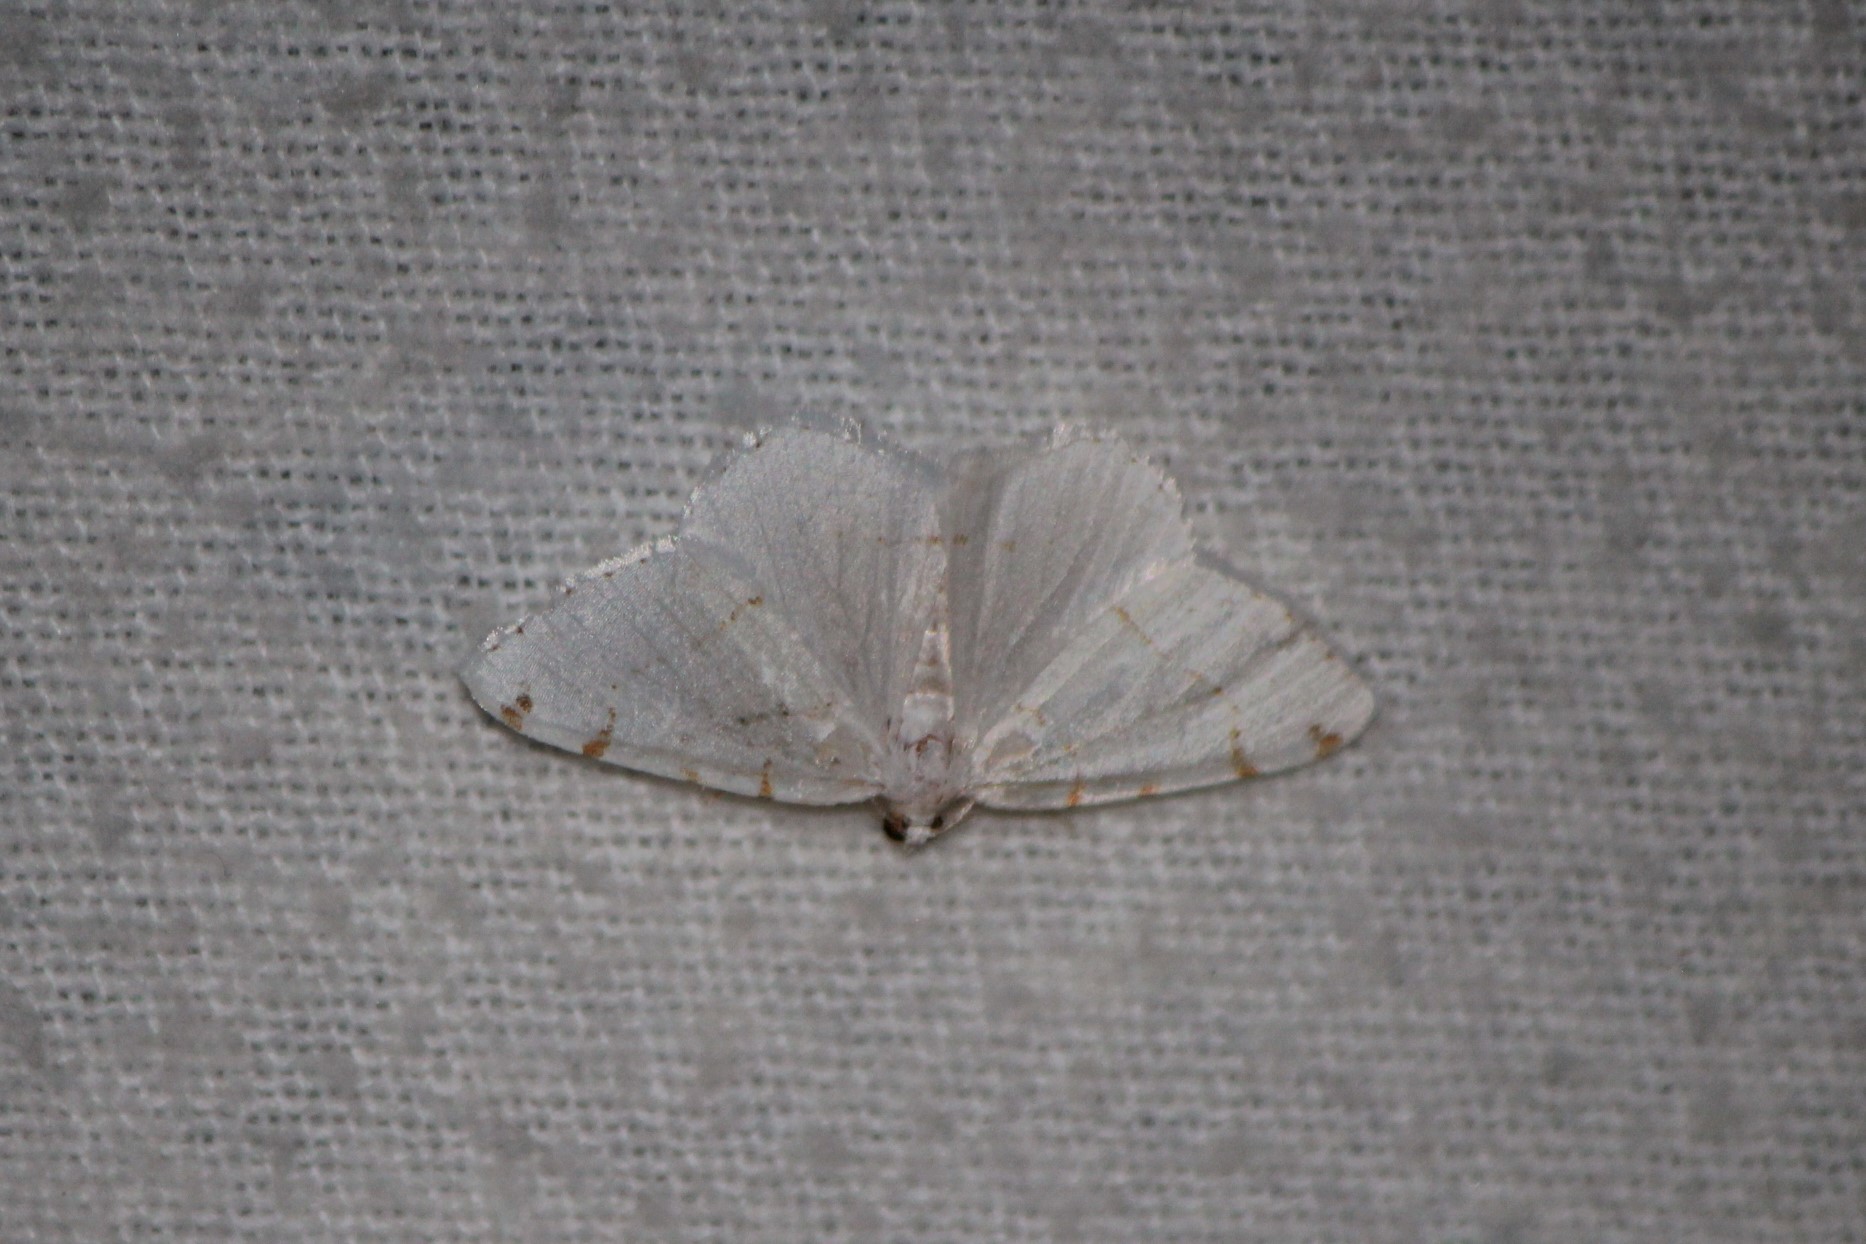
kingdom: Animalia
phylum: Arthropoda
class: Insecta
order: Lepidoptera
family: Geometridae
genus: Macaria
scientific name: Macaria pustularia
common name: Lesser maple spanworm moth
